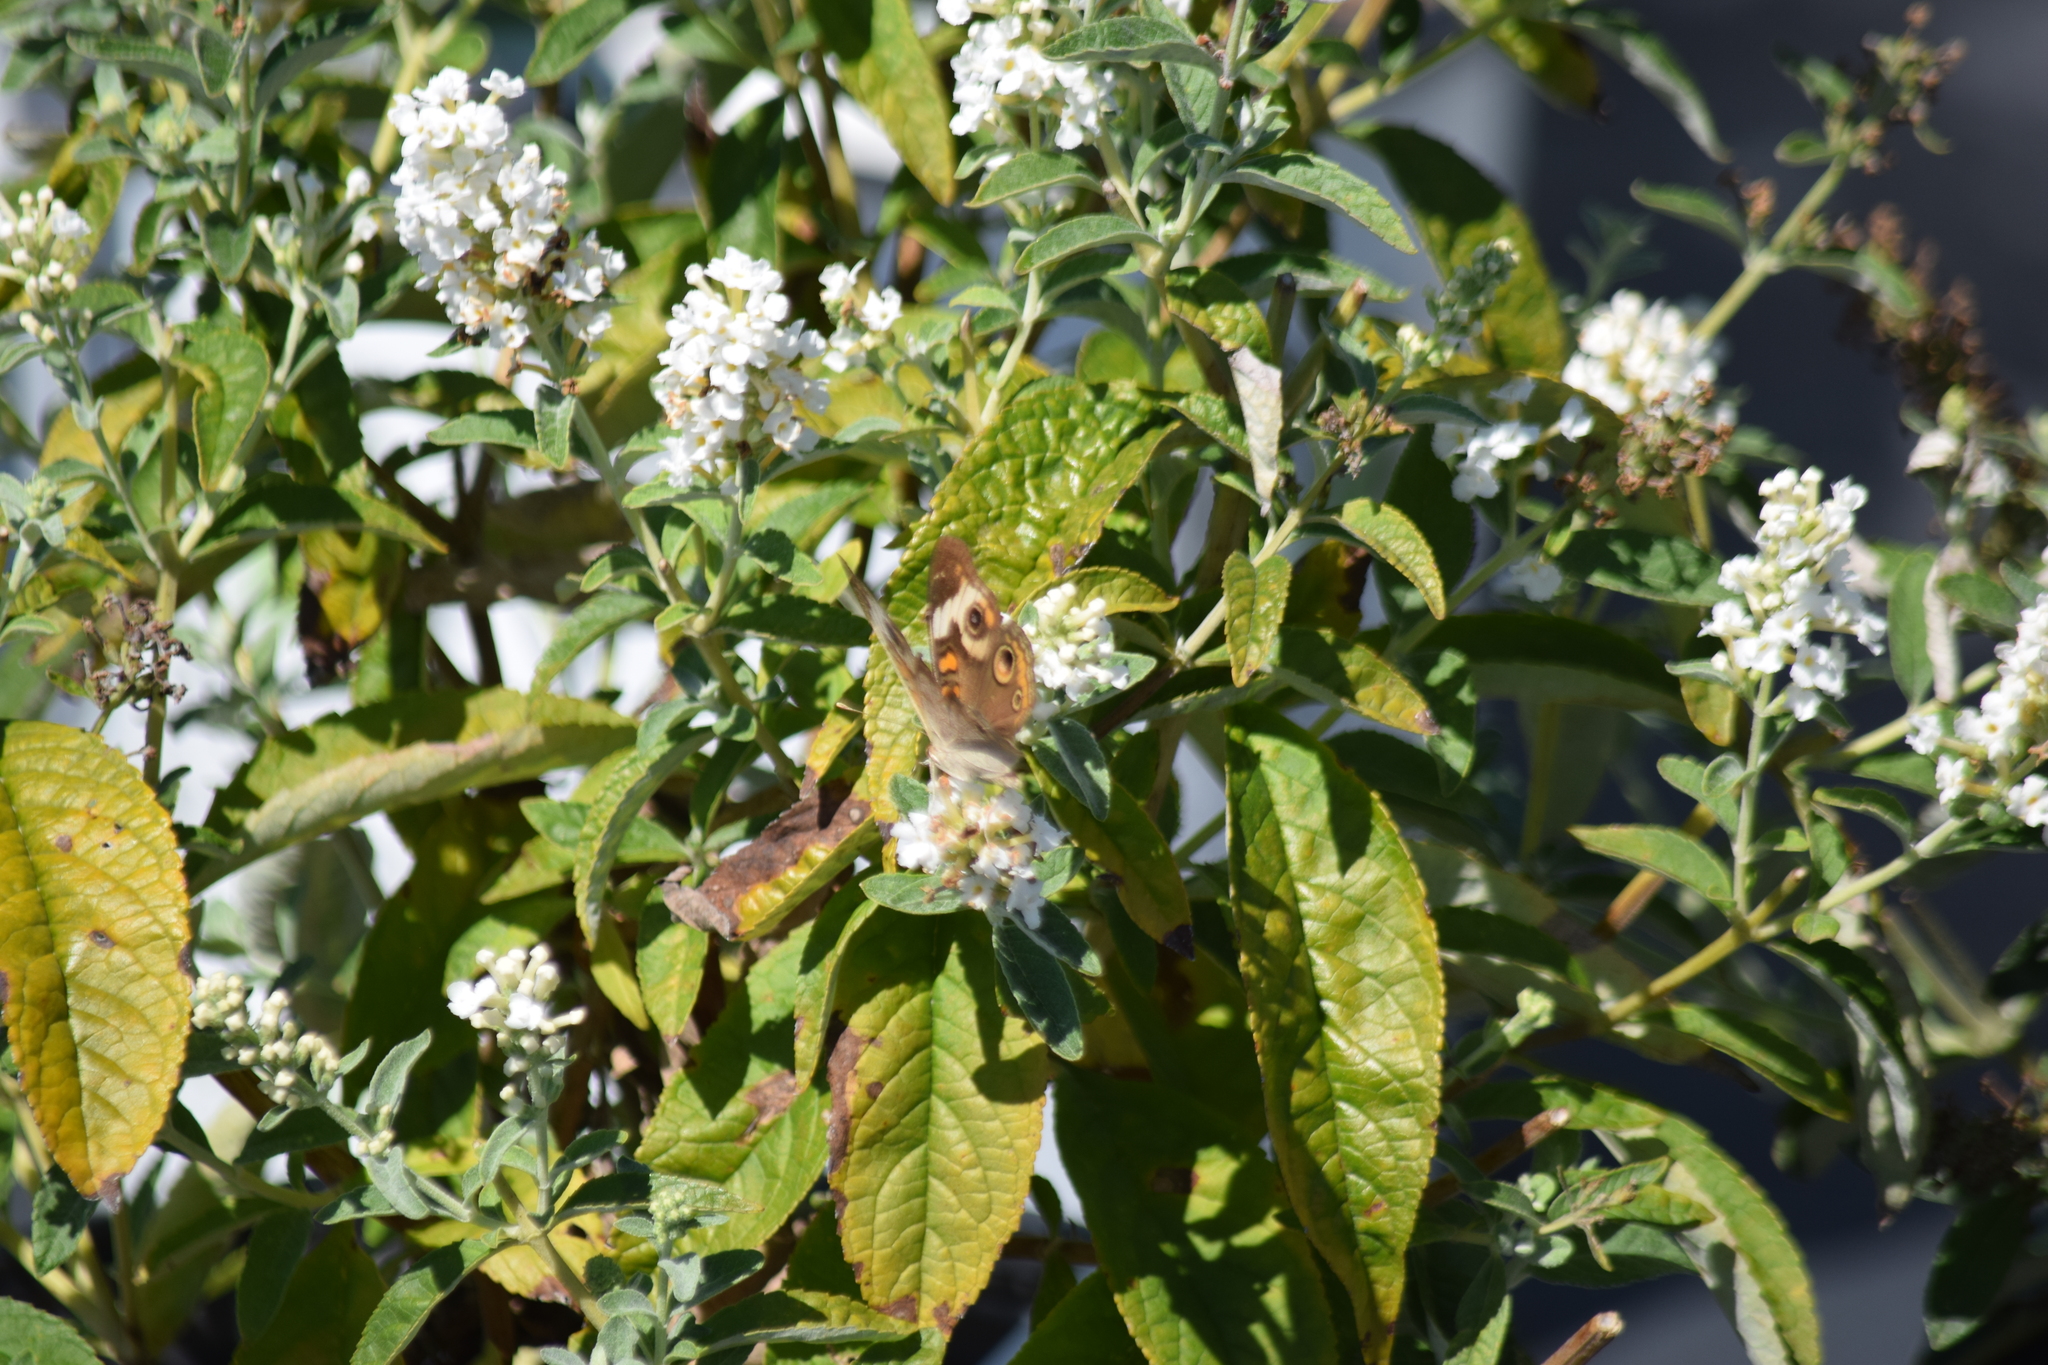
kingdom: Animalia
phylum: Arthropoda
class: Insecta
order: Lepidoptera
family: Nymphalidae
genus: Junonia
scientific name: Junonia coenia
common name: Common buckeye
